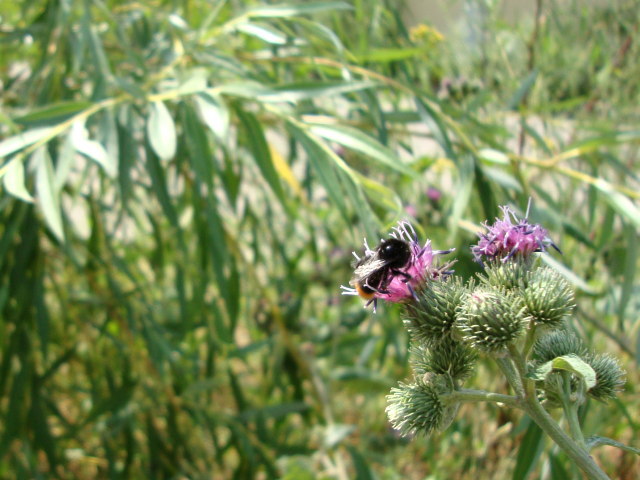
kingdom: Animalia
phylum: Arthropoda
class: Insecta
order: Hymenoptera
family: Apidae
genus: Bombus
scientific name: Bombus
